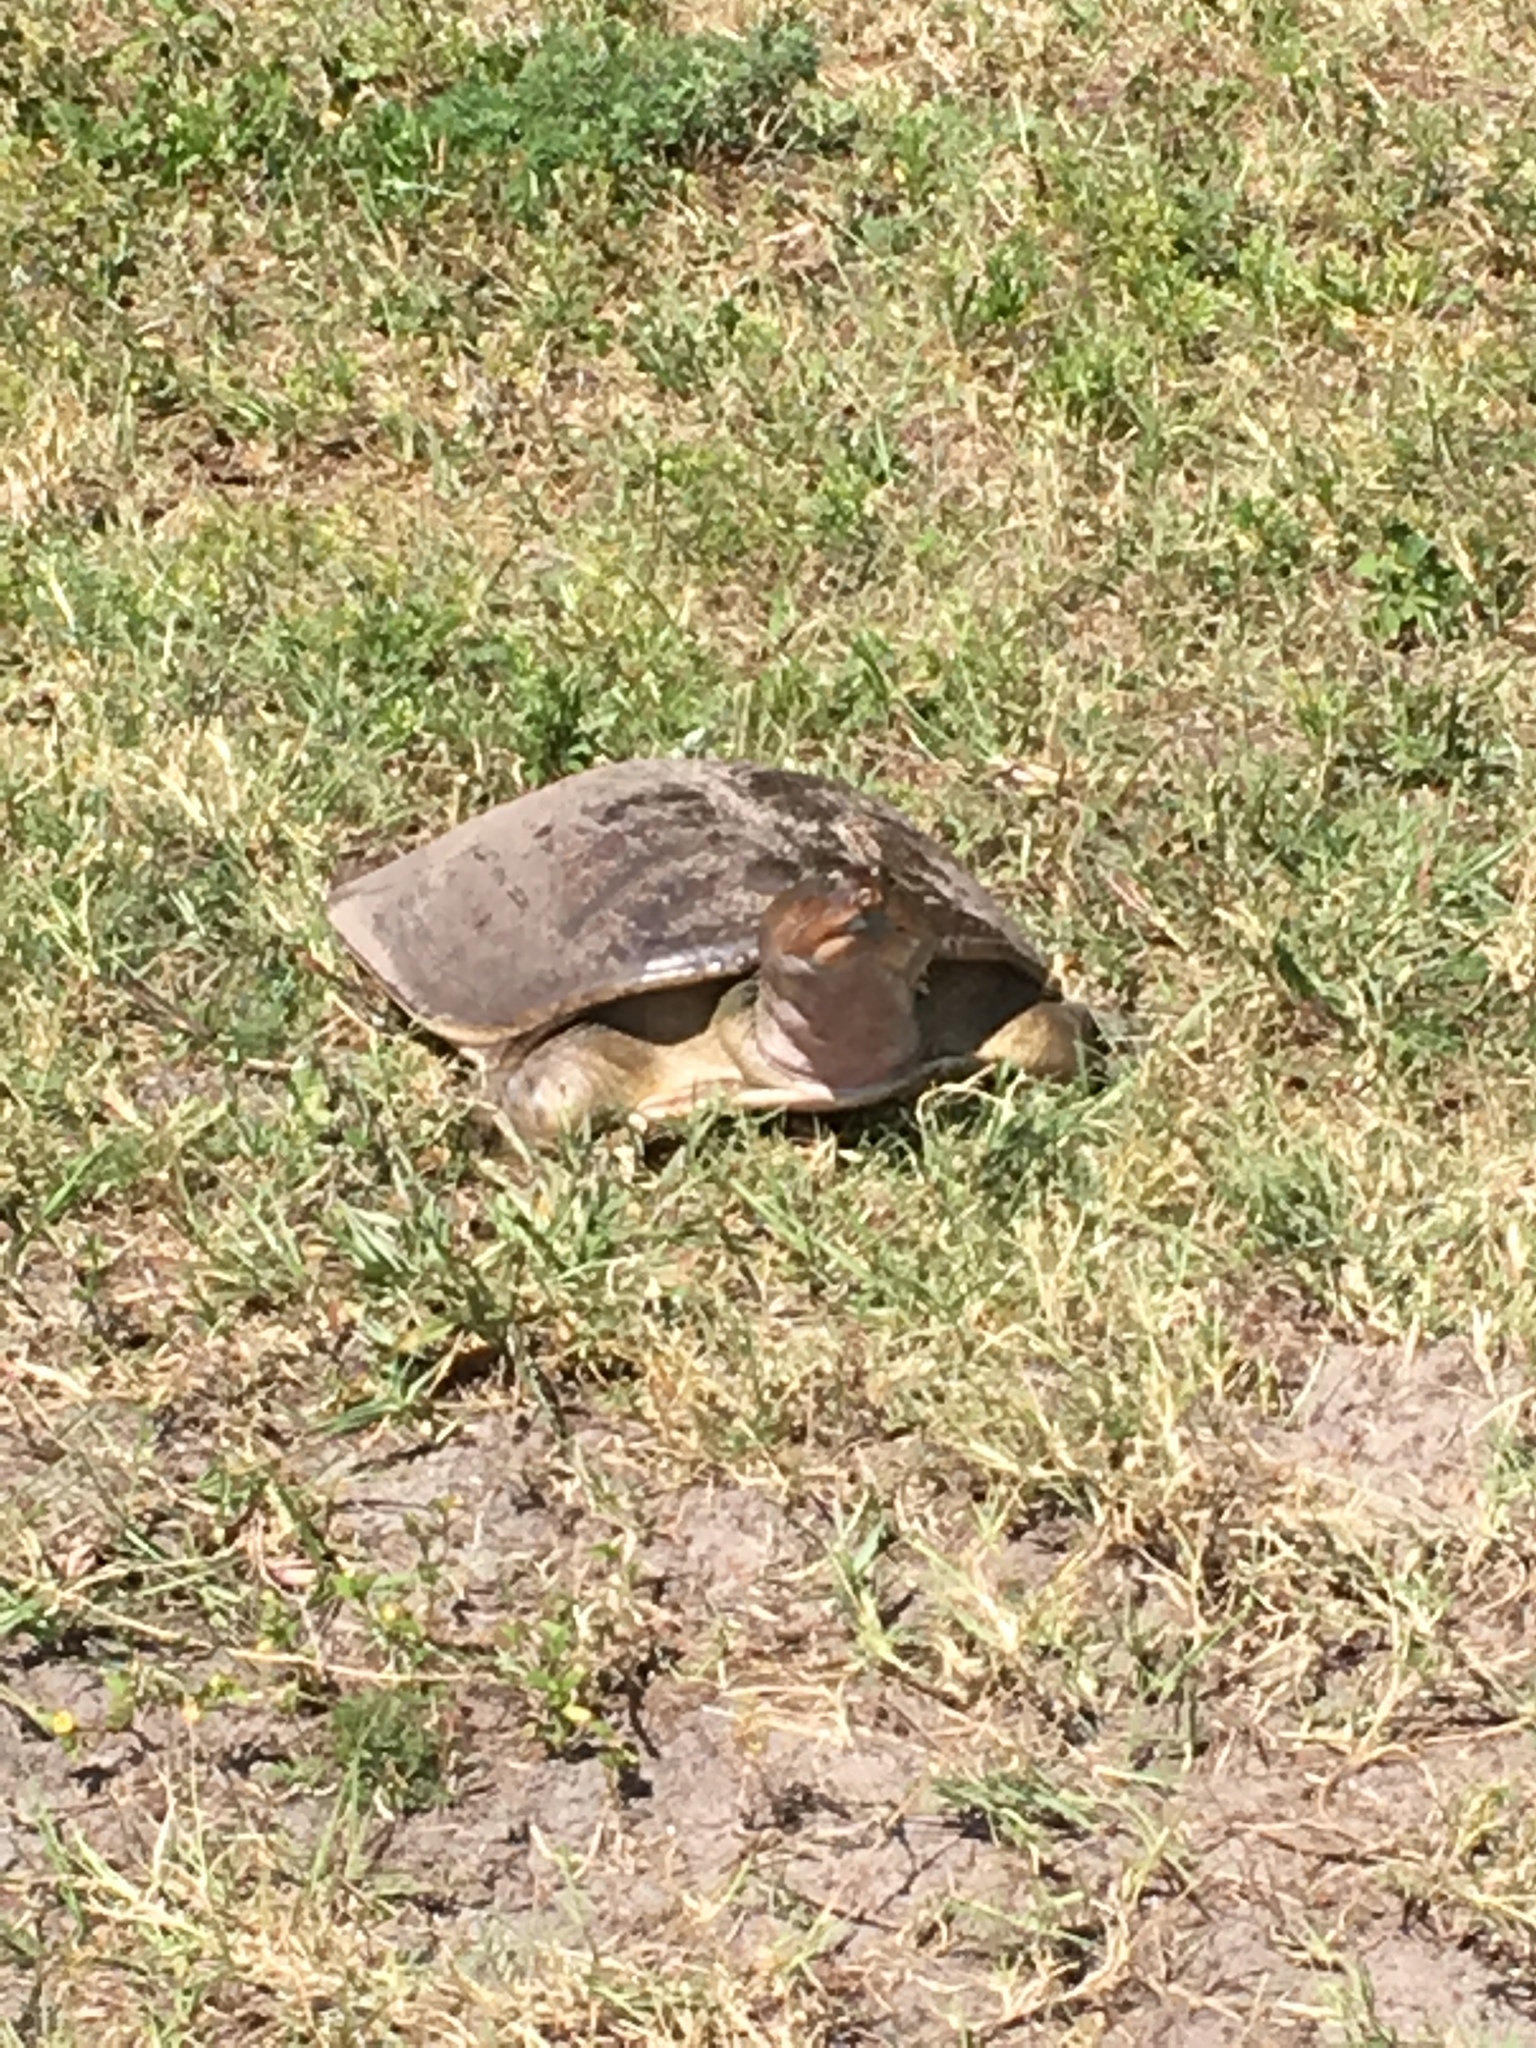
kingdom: Animalia
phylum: Chordata
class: Testudines
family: Trionychidae
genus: Apalone
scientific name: Apalone ferox
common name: Florida softshell turtle
